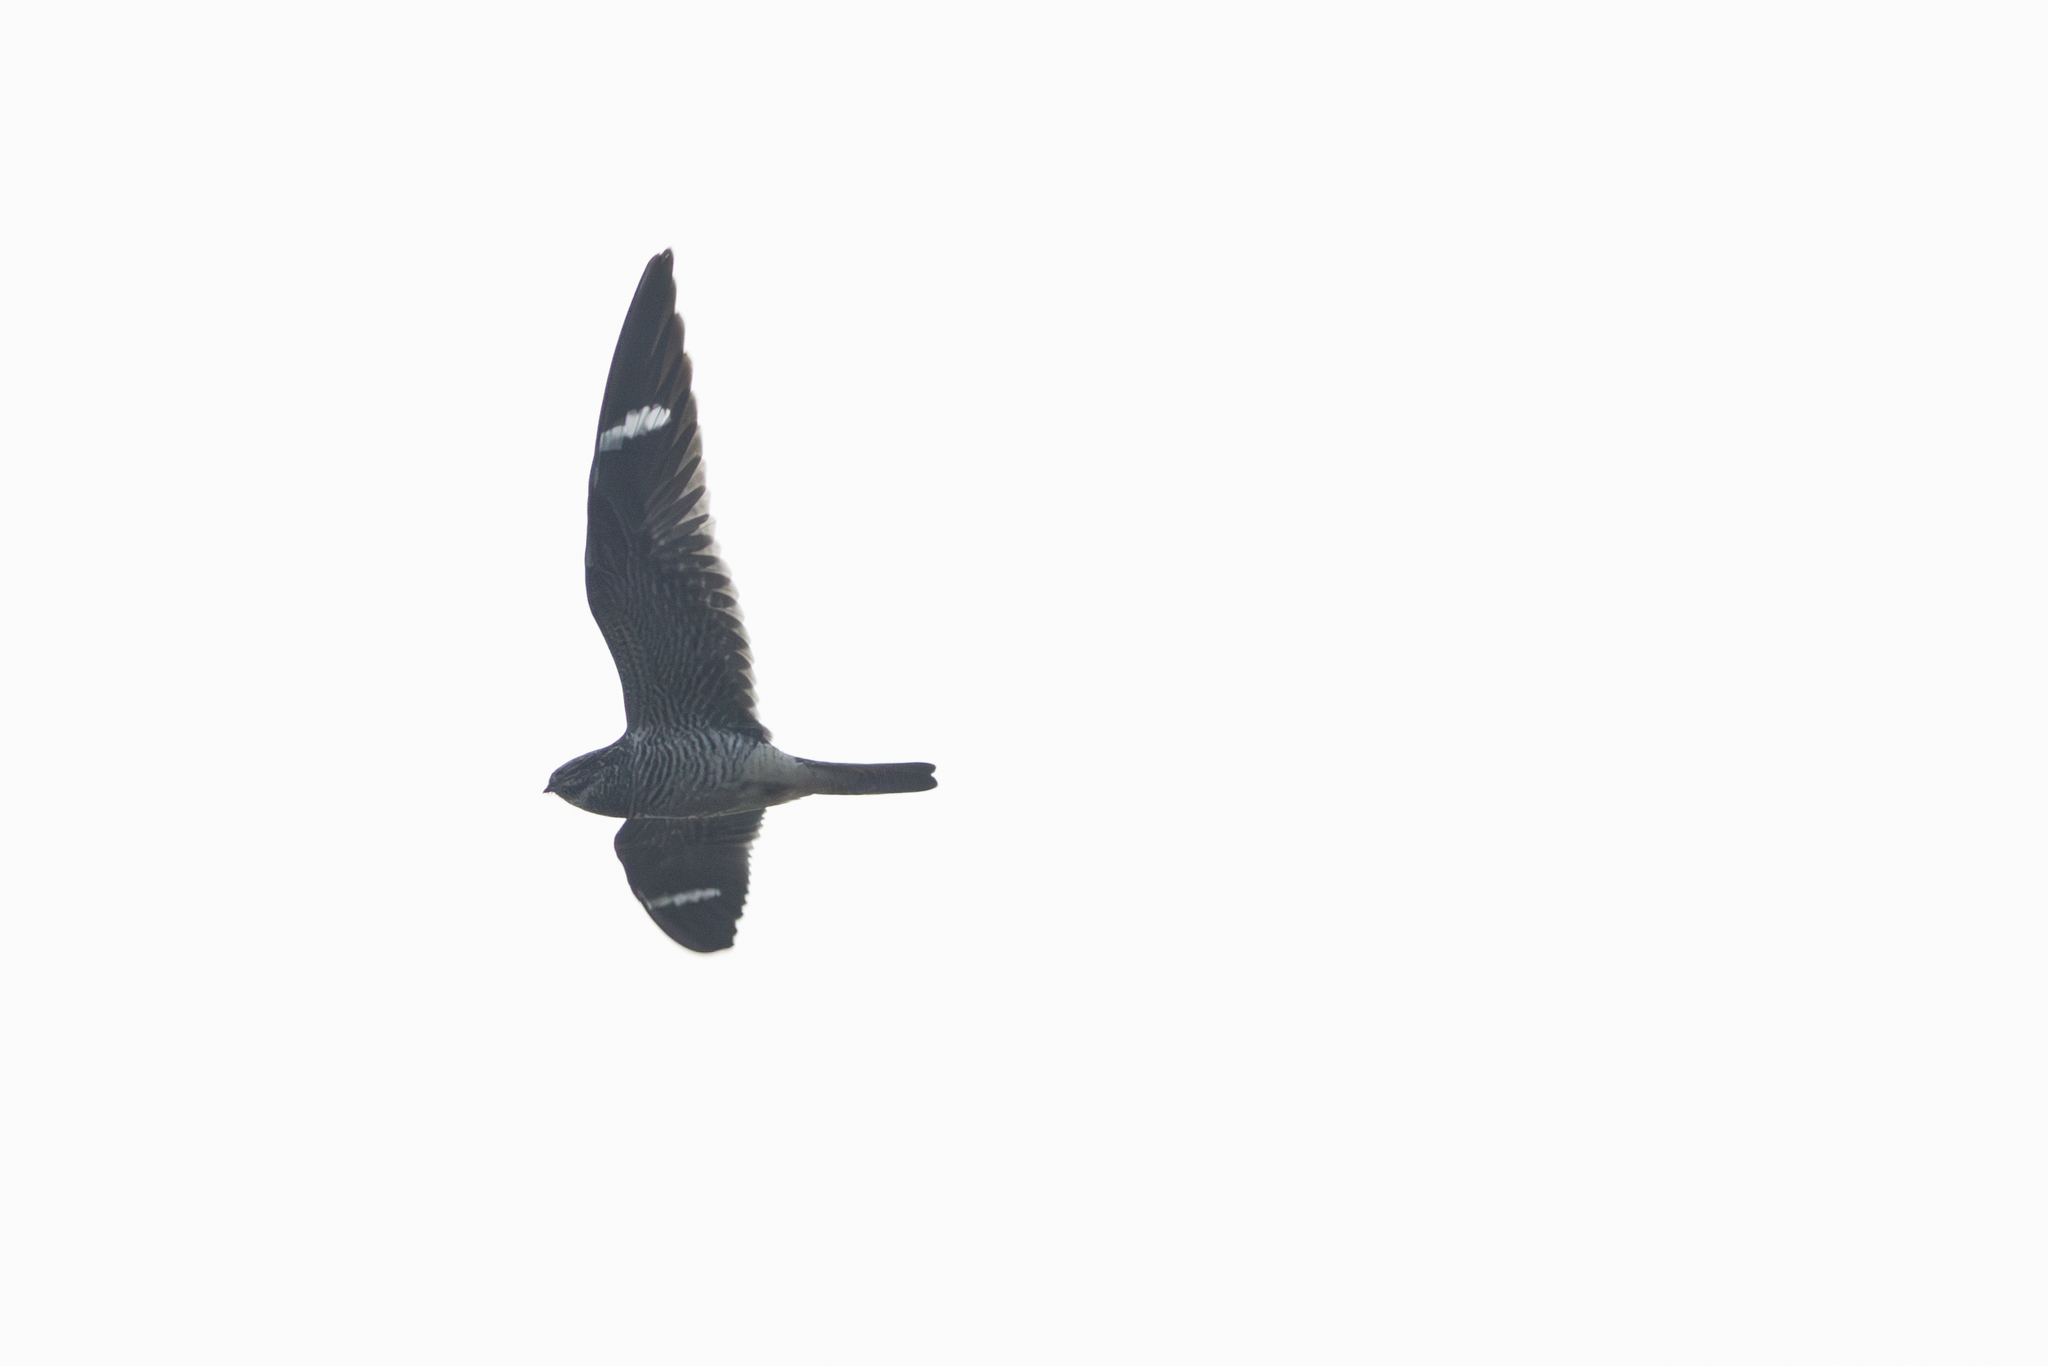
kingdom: Animalia
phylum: Chordata
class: Aves
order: Caprimulgiformes
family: Caprimulgidae
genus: Chordeiles
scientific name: Chordeiles minor
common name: Common nighthawk
